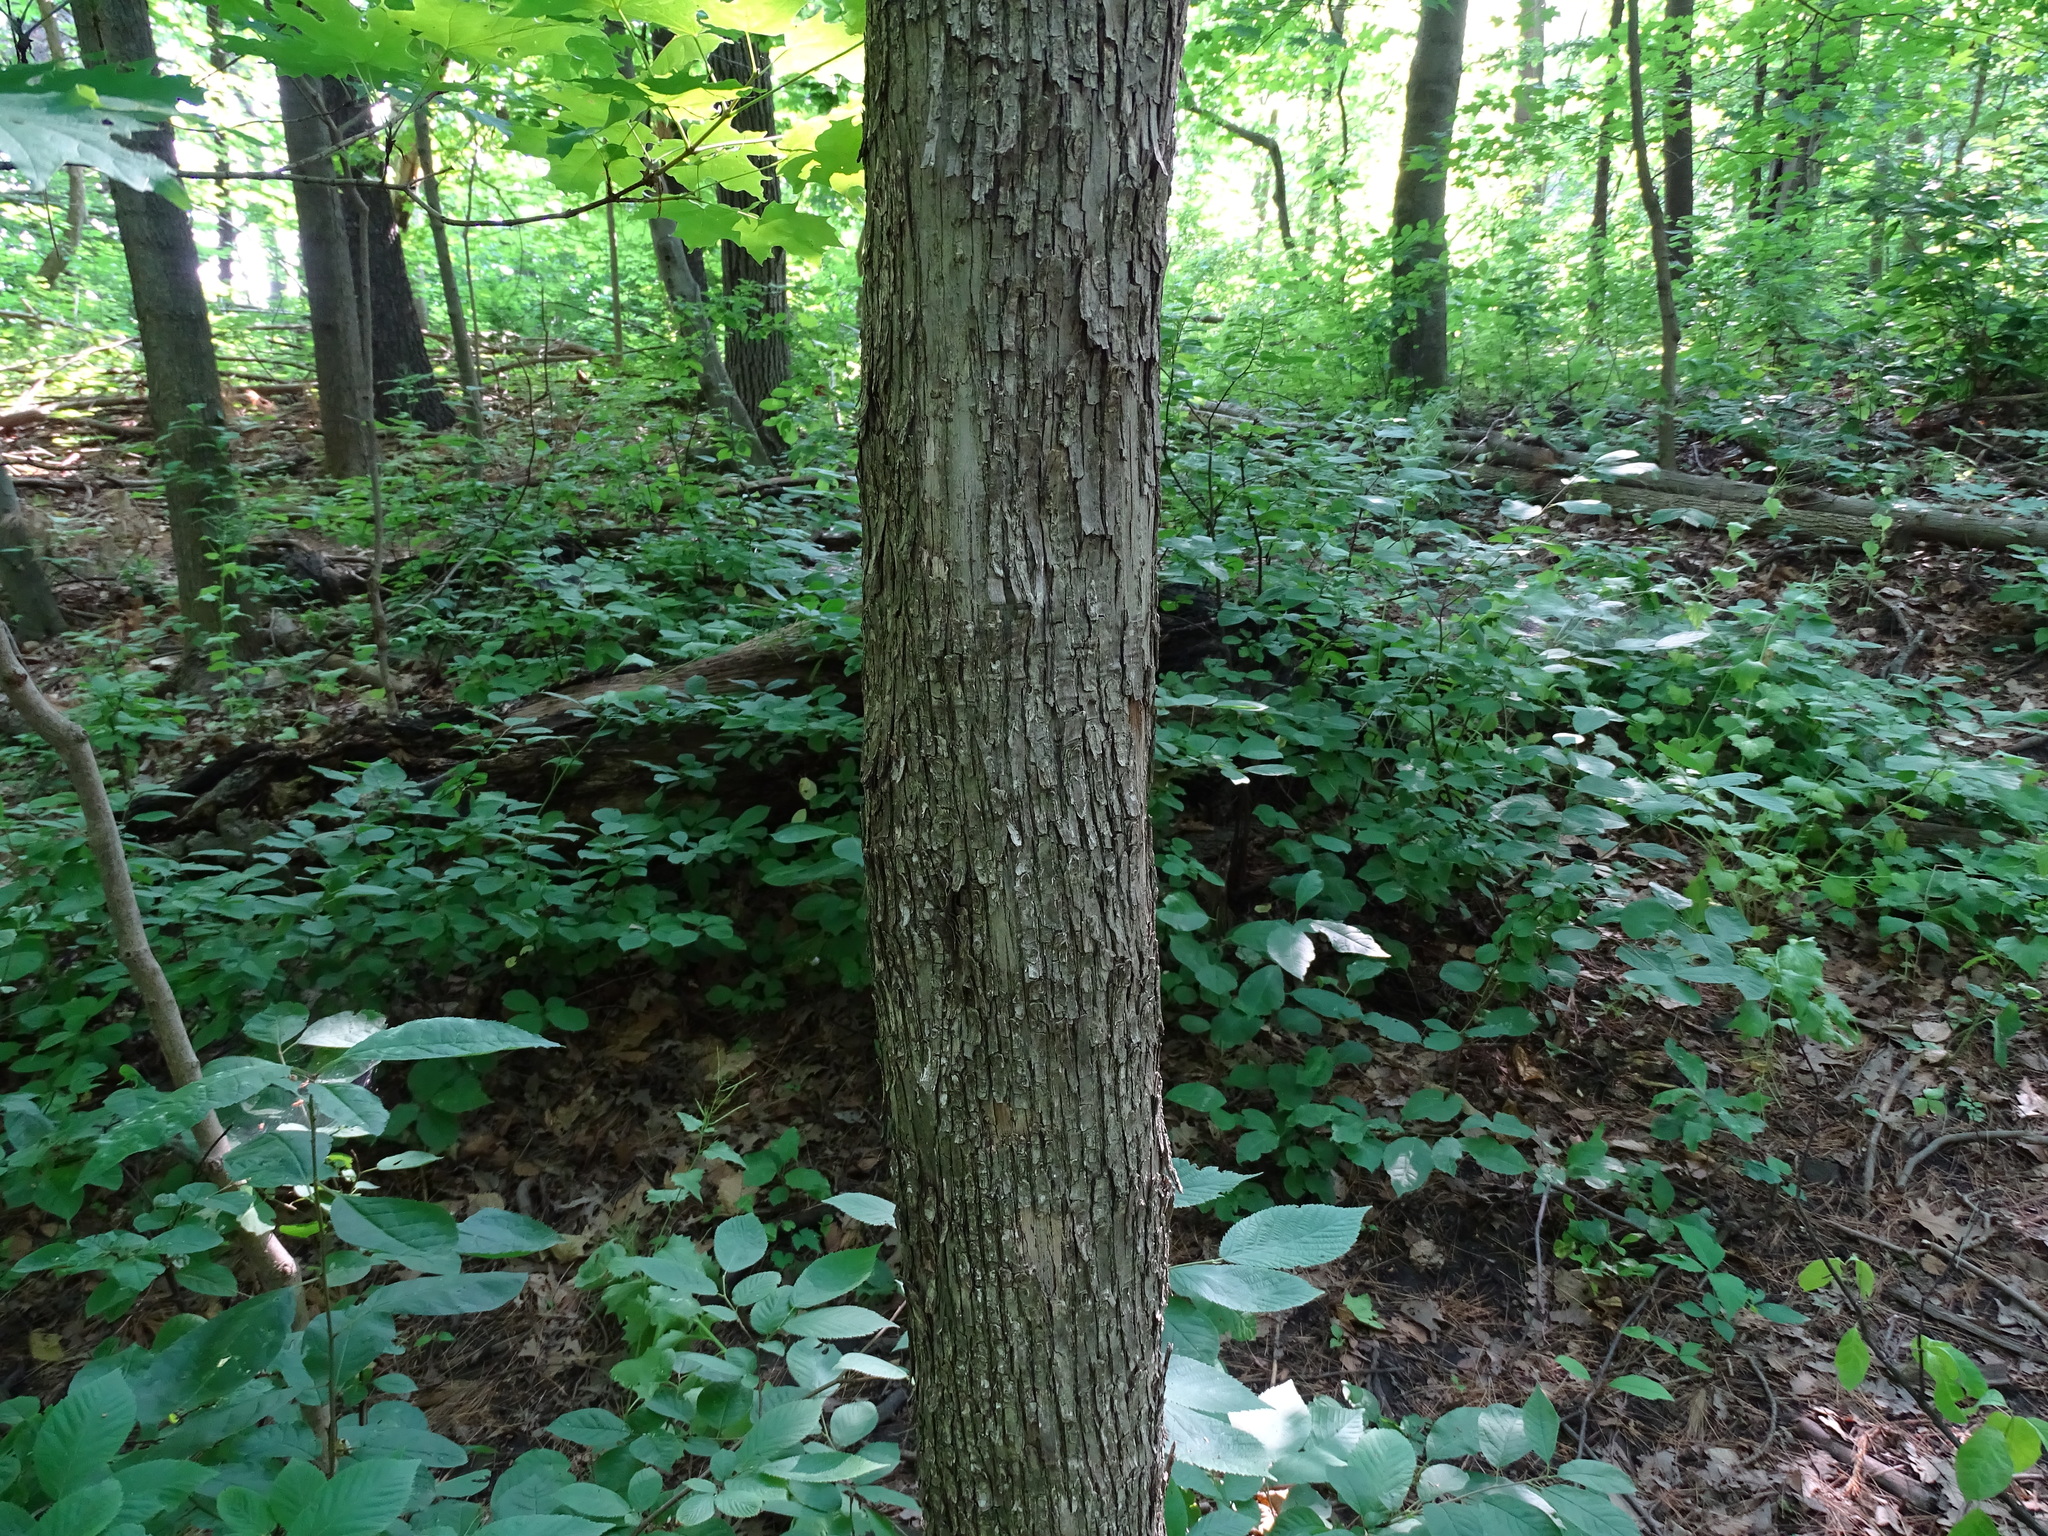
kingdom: Plantae
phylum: Tracheophyta
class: Magnoliopsida
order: Fagales
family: Betulaceae
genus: Ostrya
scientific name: Ostrya virginiana
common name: Ironwood
